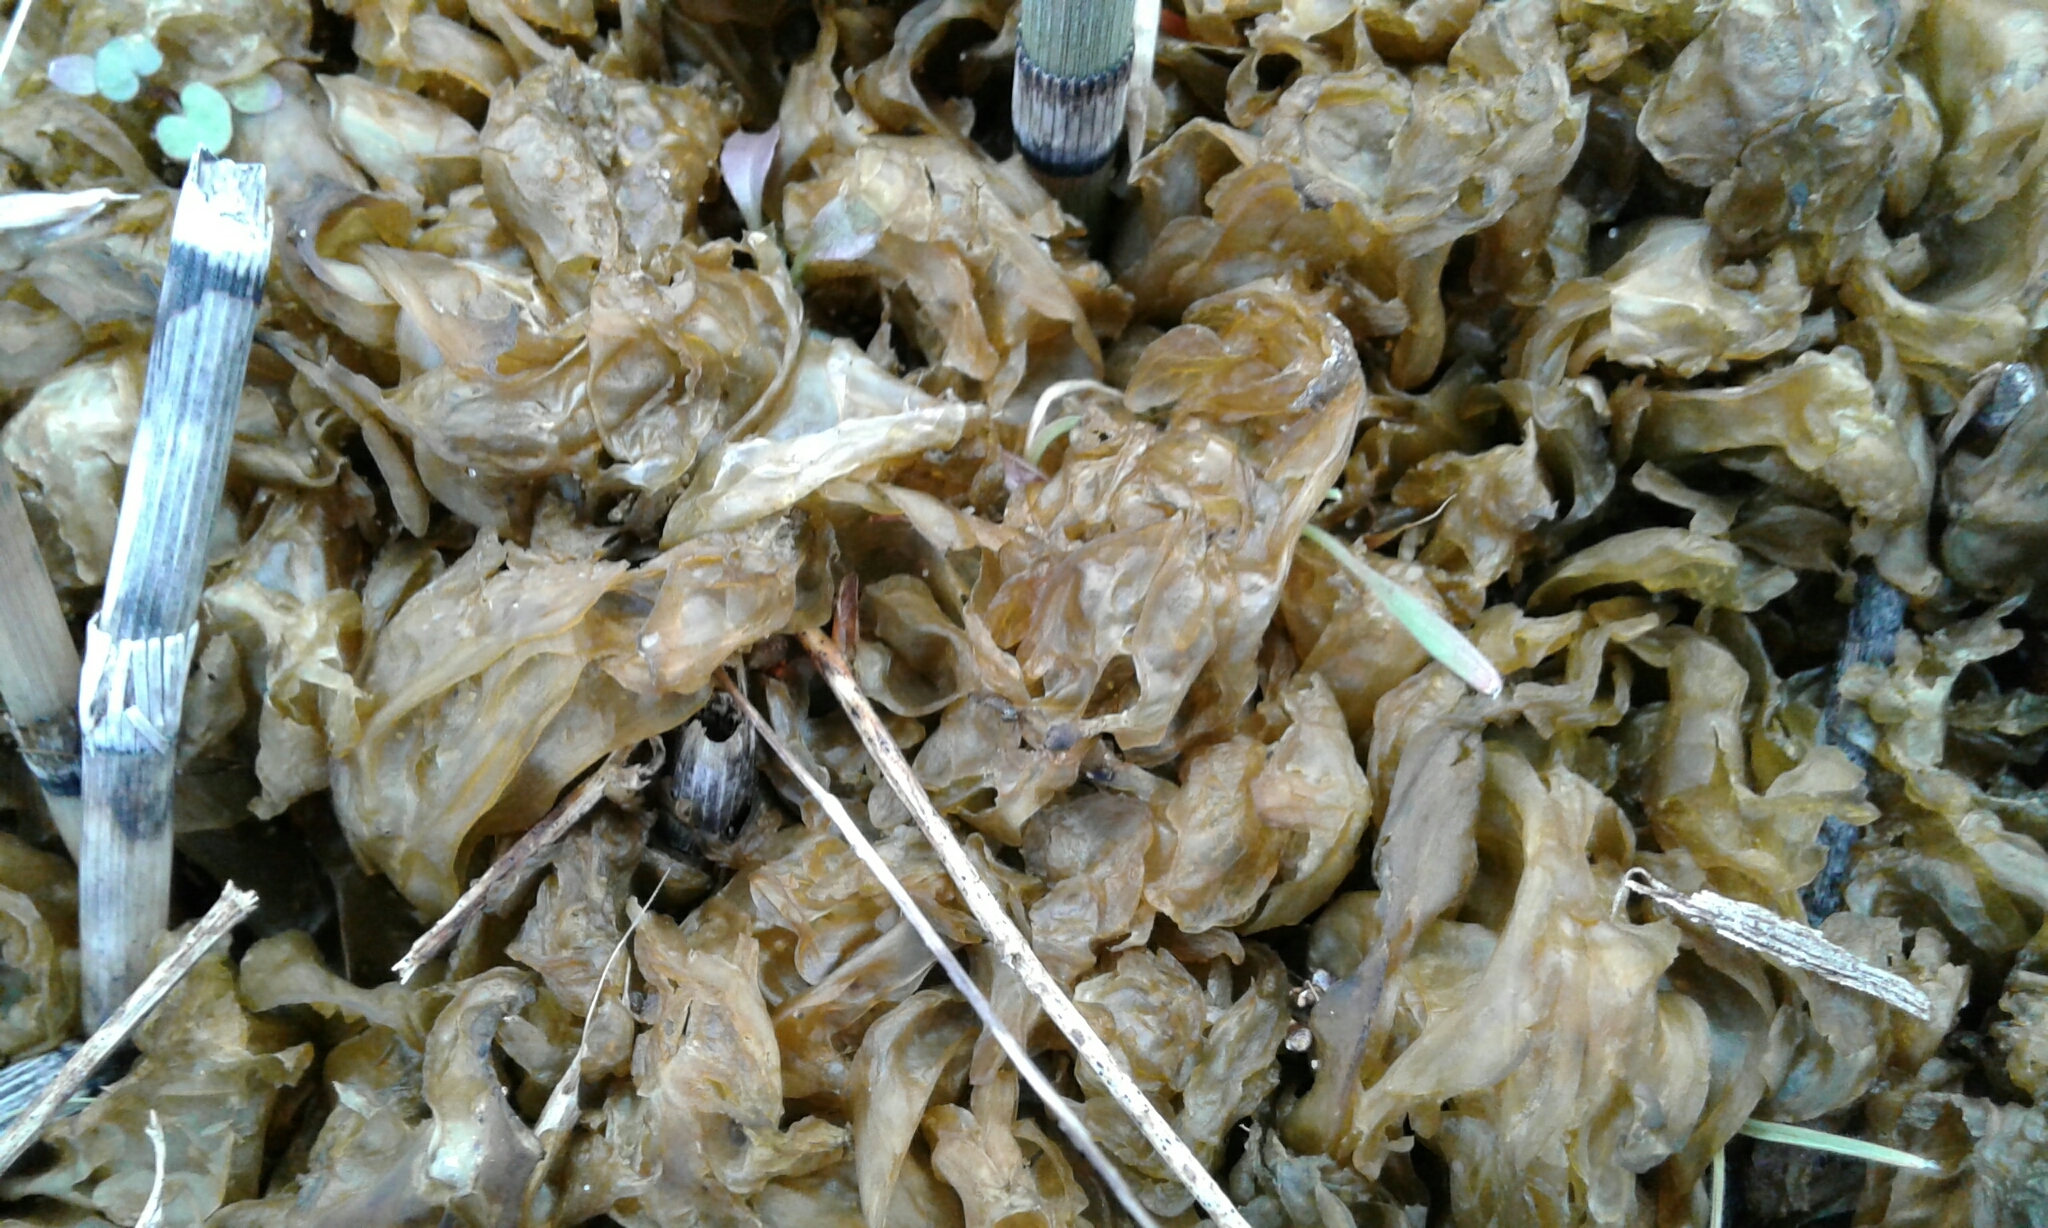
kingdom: Bacteria
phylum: Cyanobacteria
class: Cyanobacteriia
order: Cyanobacteriales
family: Nostocaceae
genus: Nostoc
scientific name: Nostoc commune
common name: Star jelly
